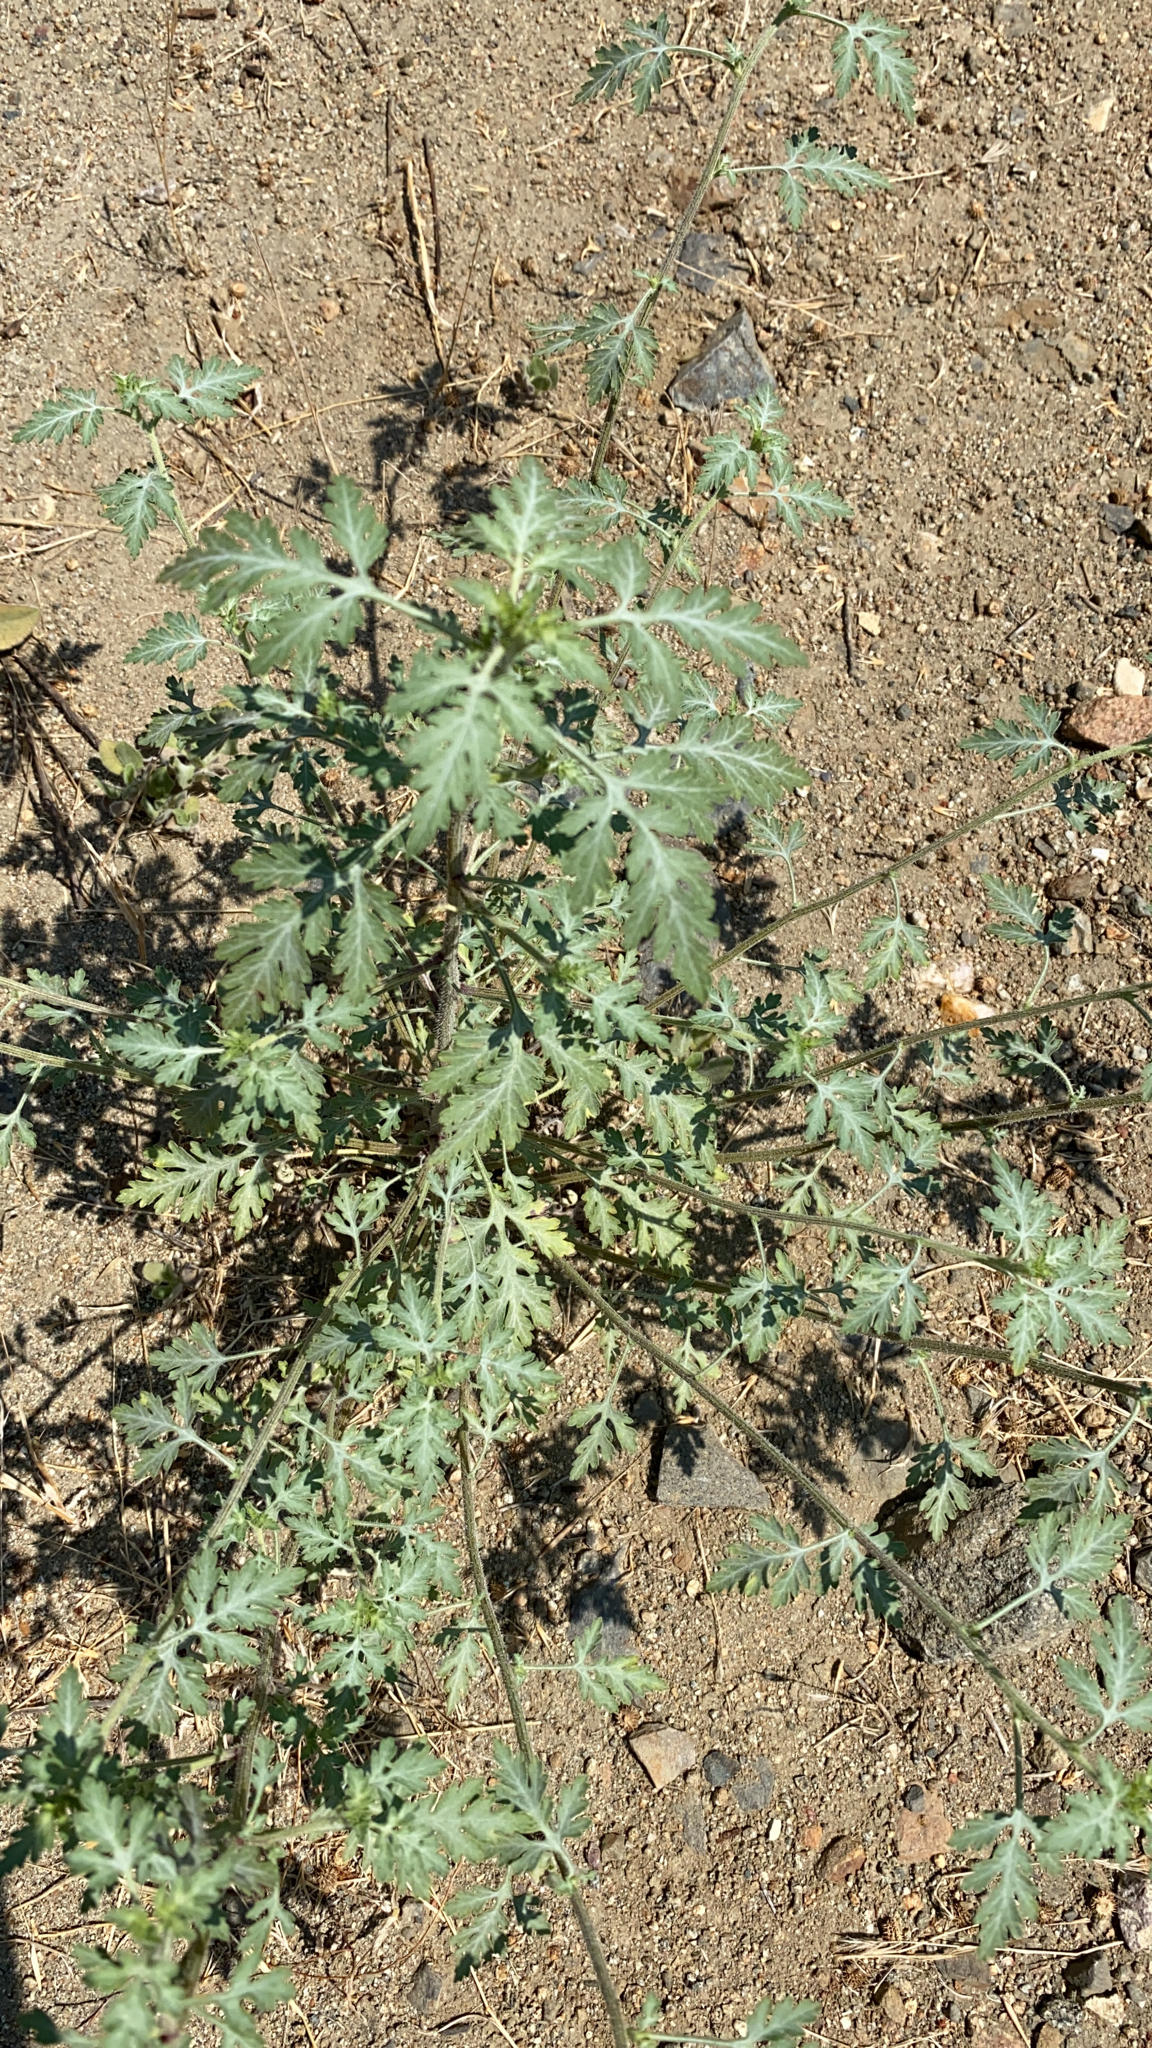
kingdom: Plantae
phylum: Tracheophyta
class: Magnoliopsida
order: Asterales
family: Asteraceae
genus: Ambrosia
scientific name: Ambrosia acanthicarpa
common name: Hooker's bur ragweed
